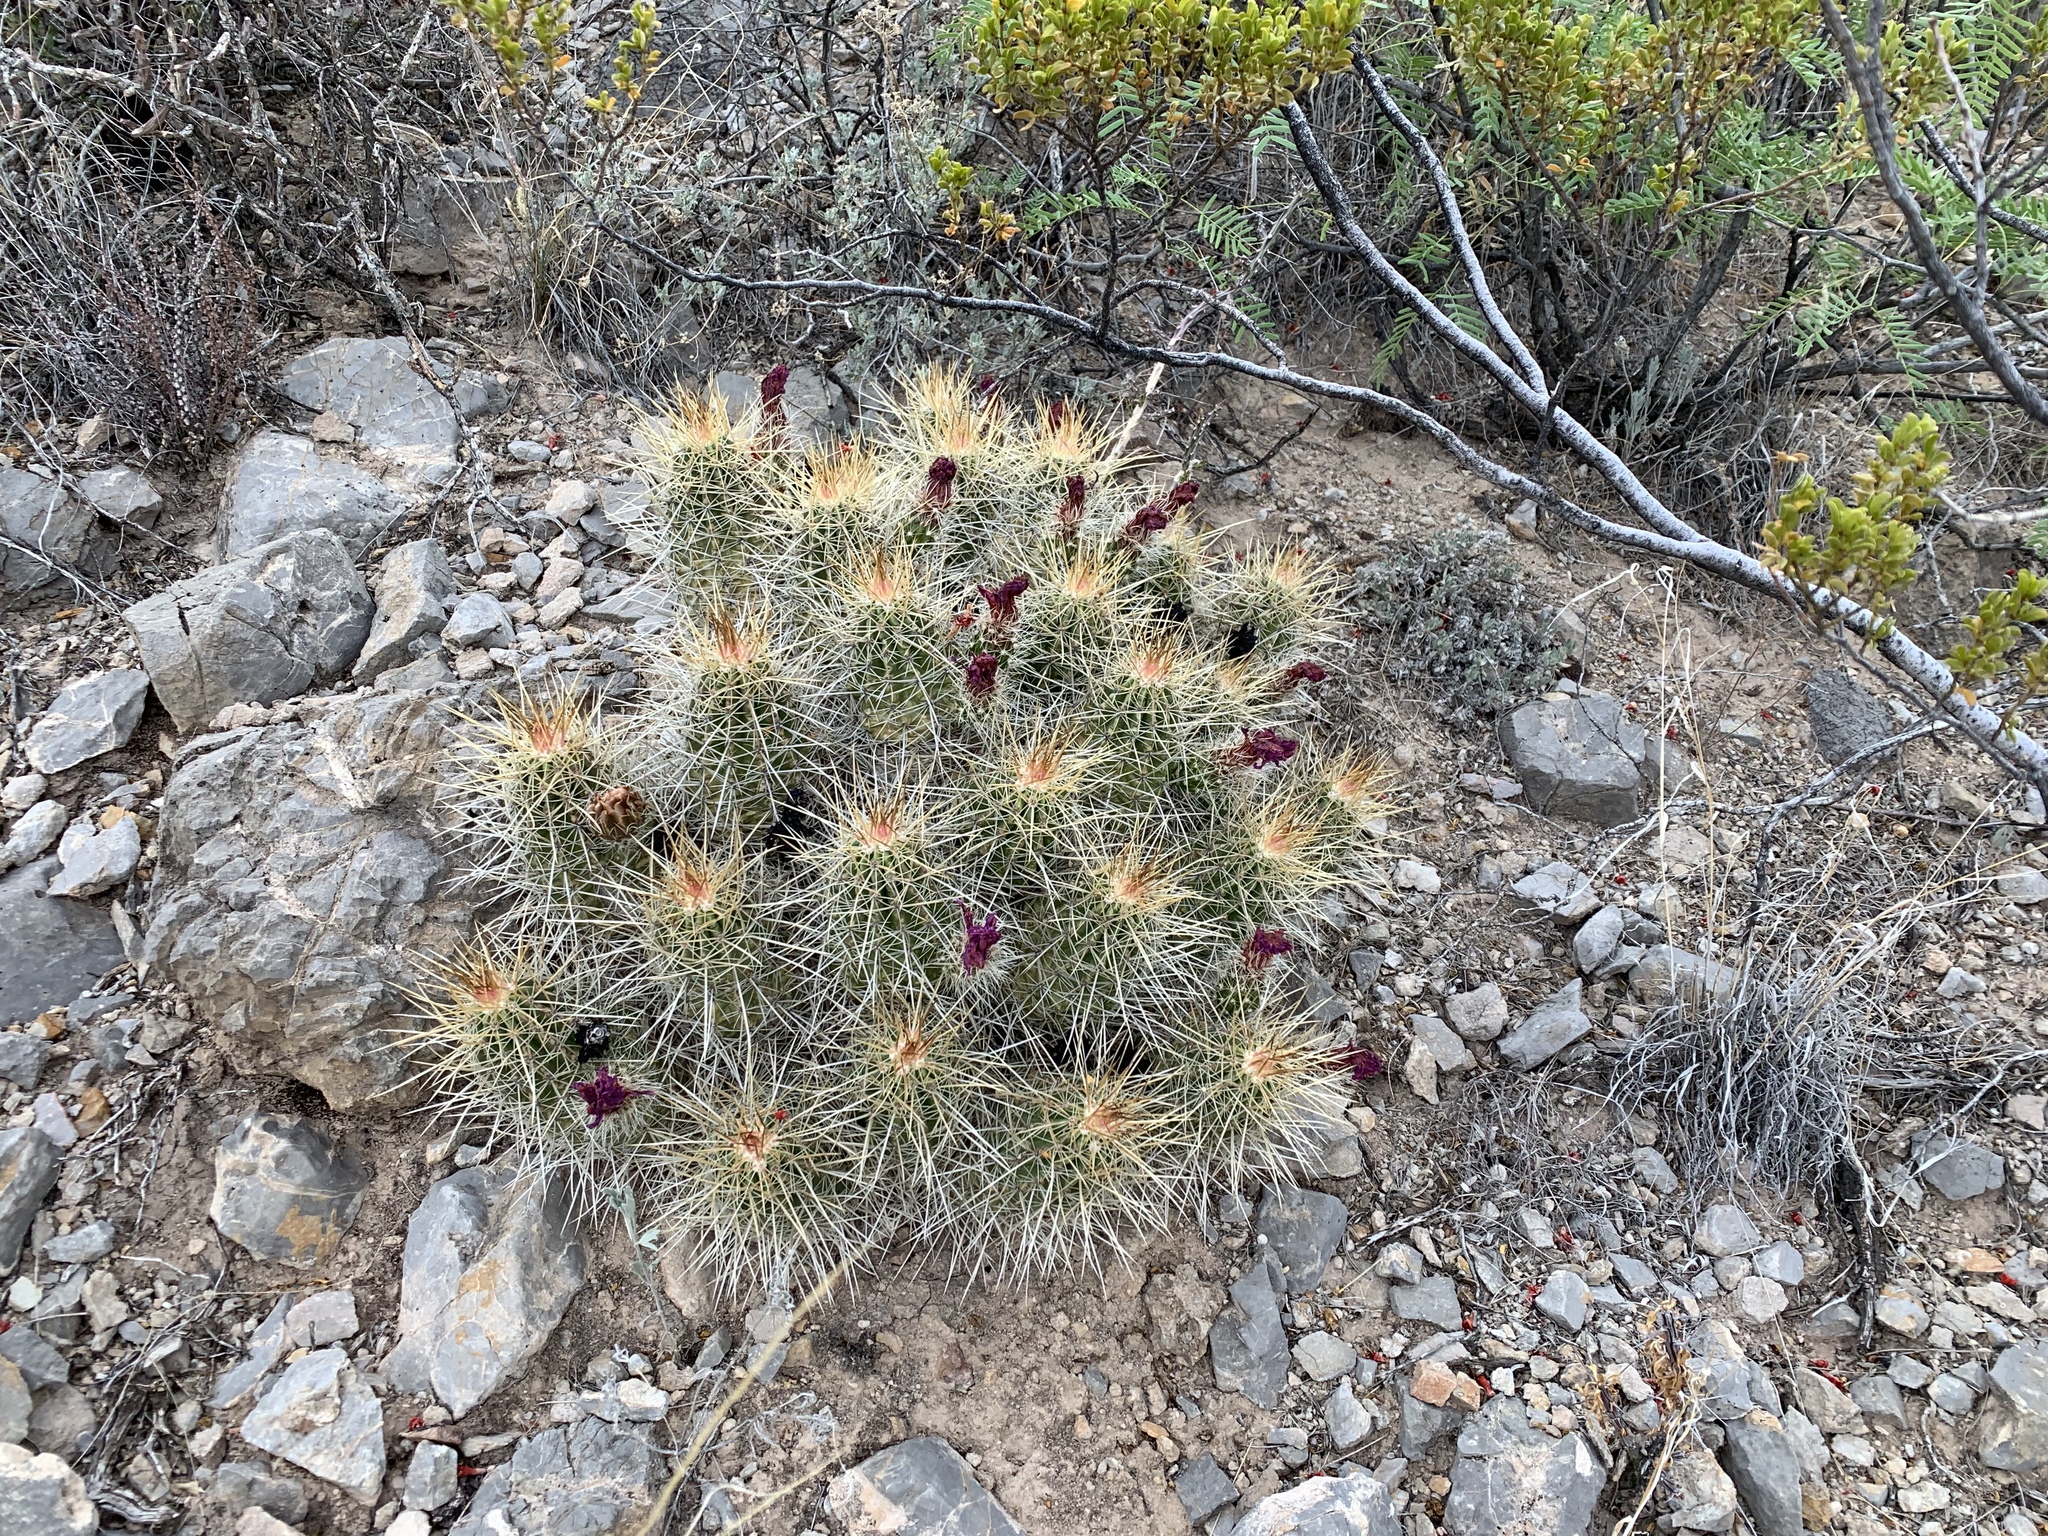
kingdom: Plantae
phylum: Tracheophyta
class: Magnoliopsida
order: Caryophyllales
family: Cactaceae
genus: Echinocereus
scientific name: Echinocereus stramineus
